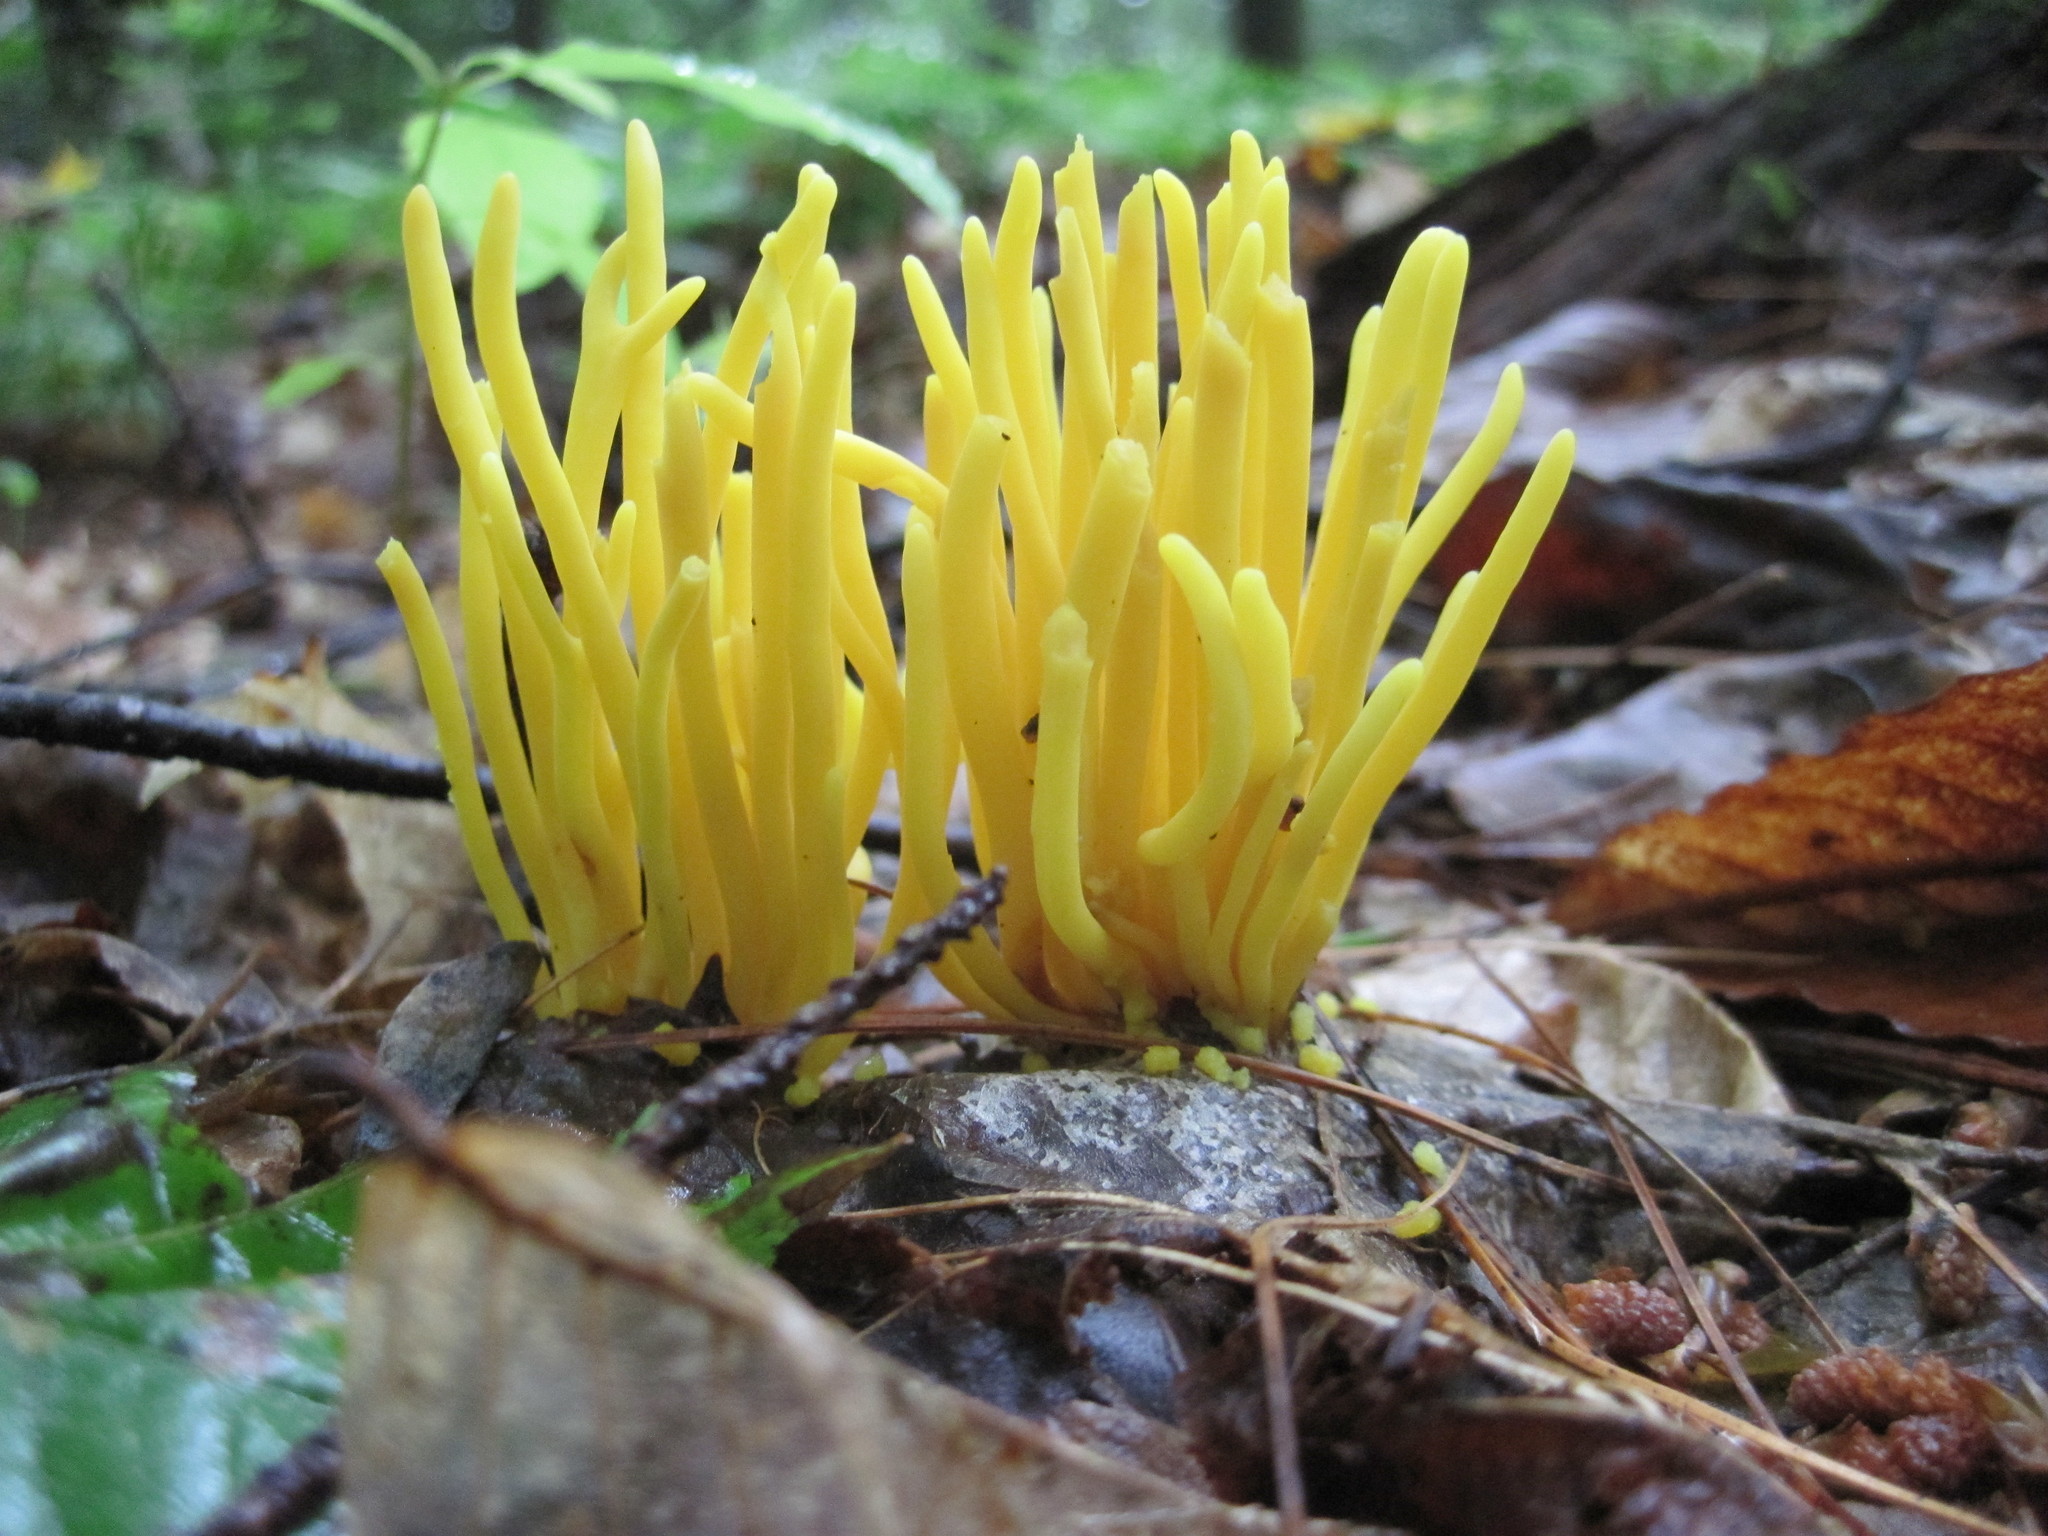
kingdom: Fungi
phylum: Basidiomycota
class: Agaricomycetes
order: Agaricales
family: Clavariaceae
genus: Clavulinopsis
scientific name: Clavulinopsis fusiformis
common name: Golden spindles
